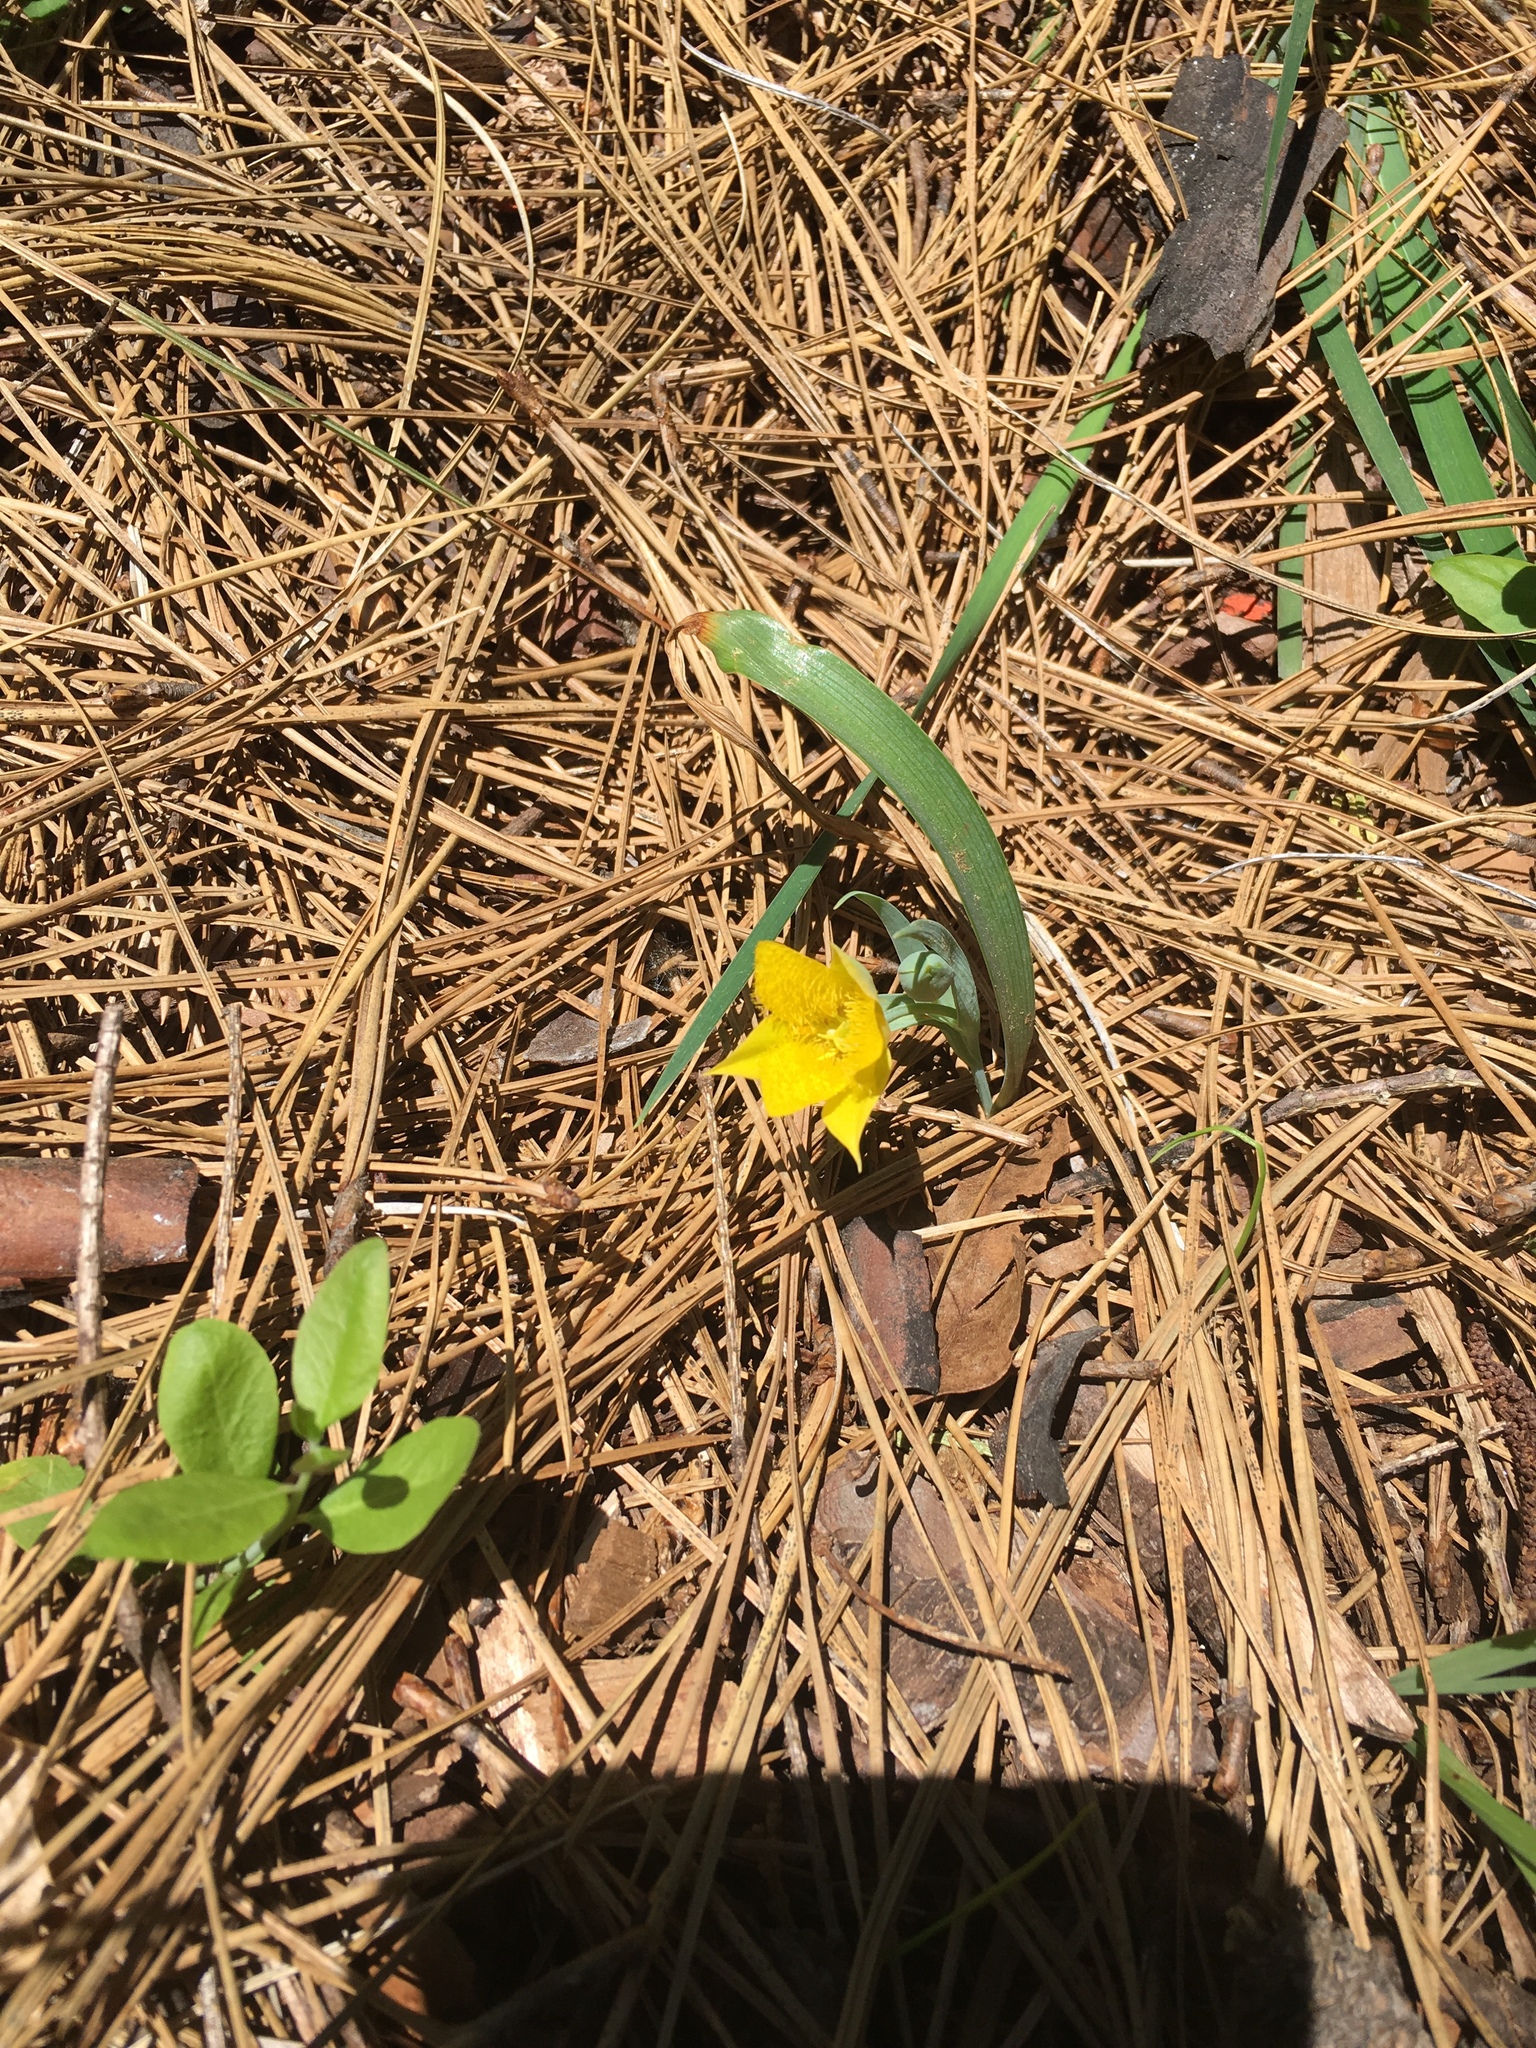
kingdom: Plantae
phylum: Tracheophyta
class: Liliopsida
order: Liliales
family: Liliaceae
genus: Calochortus
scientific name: Calochortus monophyllus
